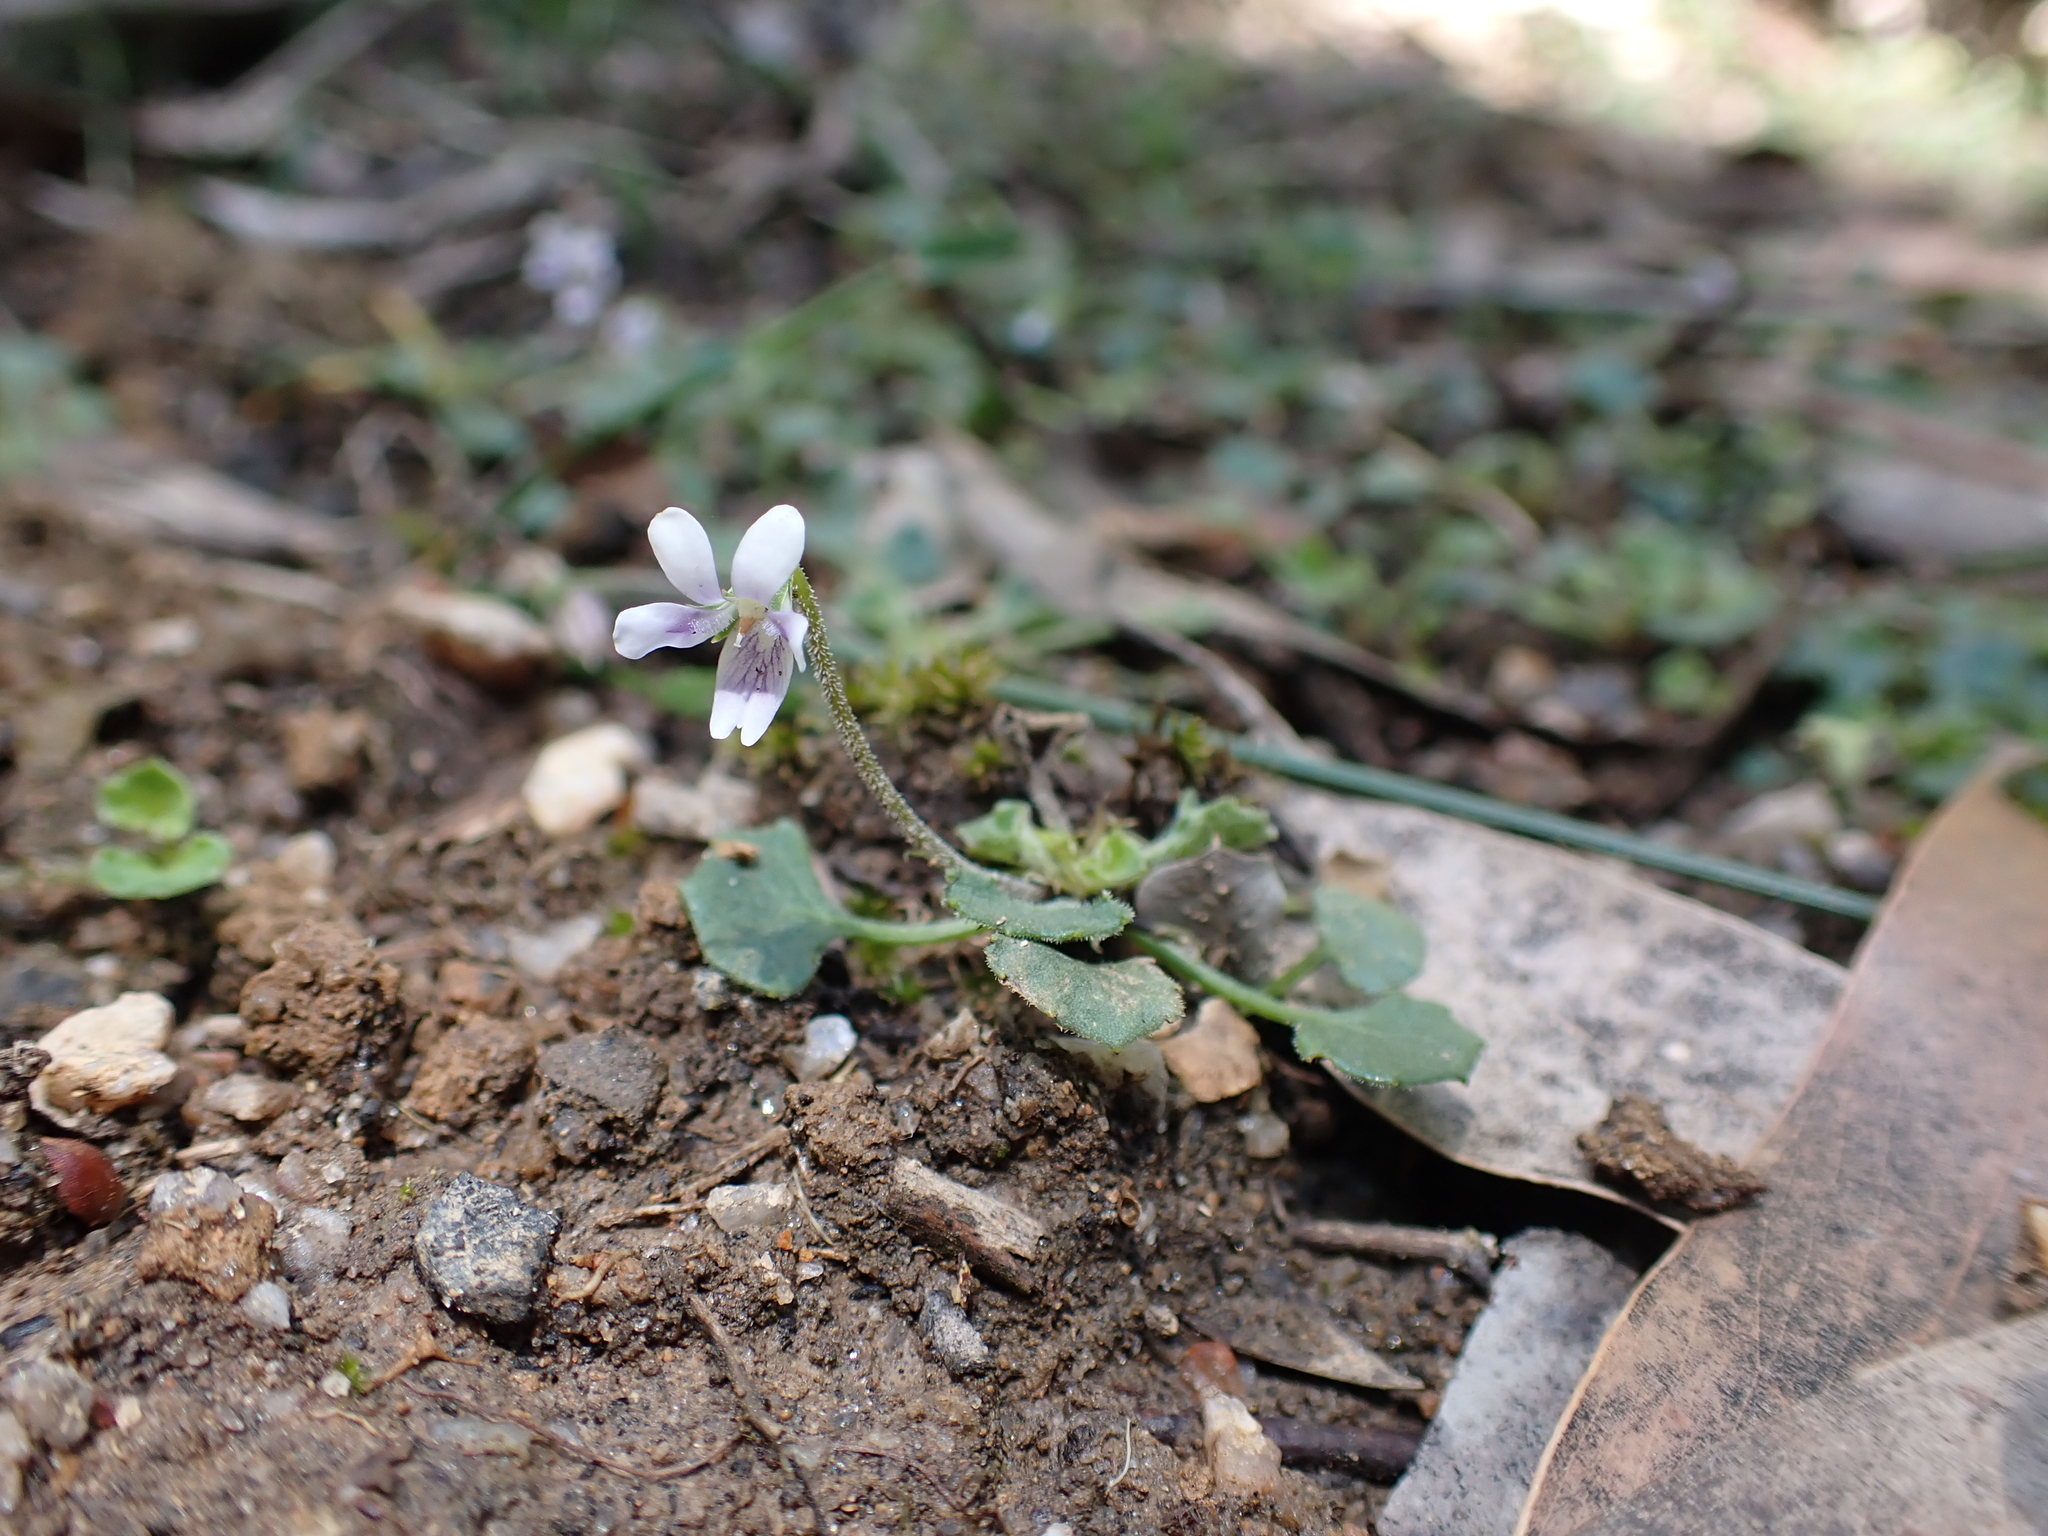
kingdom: Plantae
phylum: Tracheophyta
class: Magnoliopsida
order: Malpighiales
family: Violaceae
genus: Viola
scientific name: Viola hederacea
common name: Australian violet
